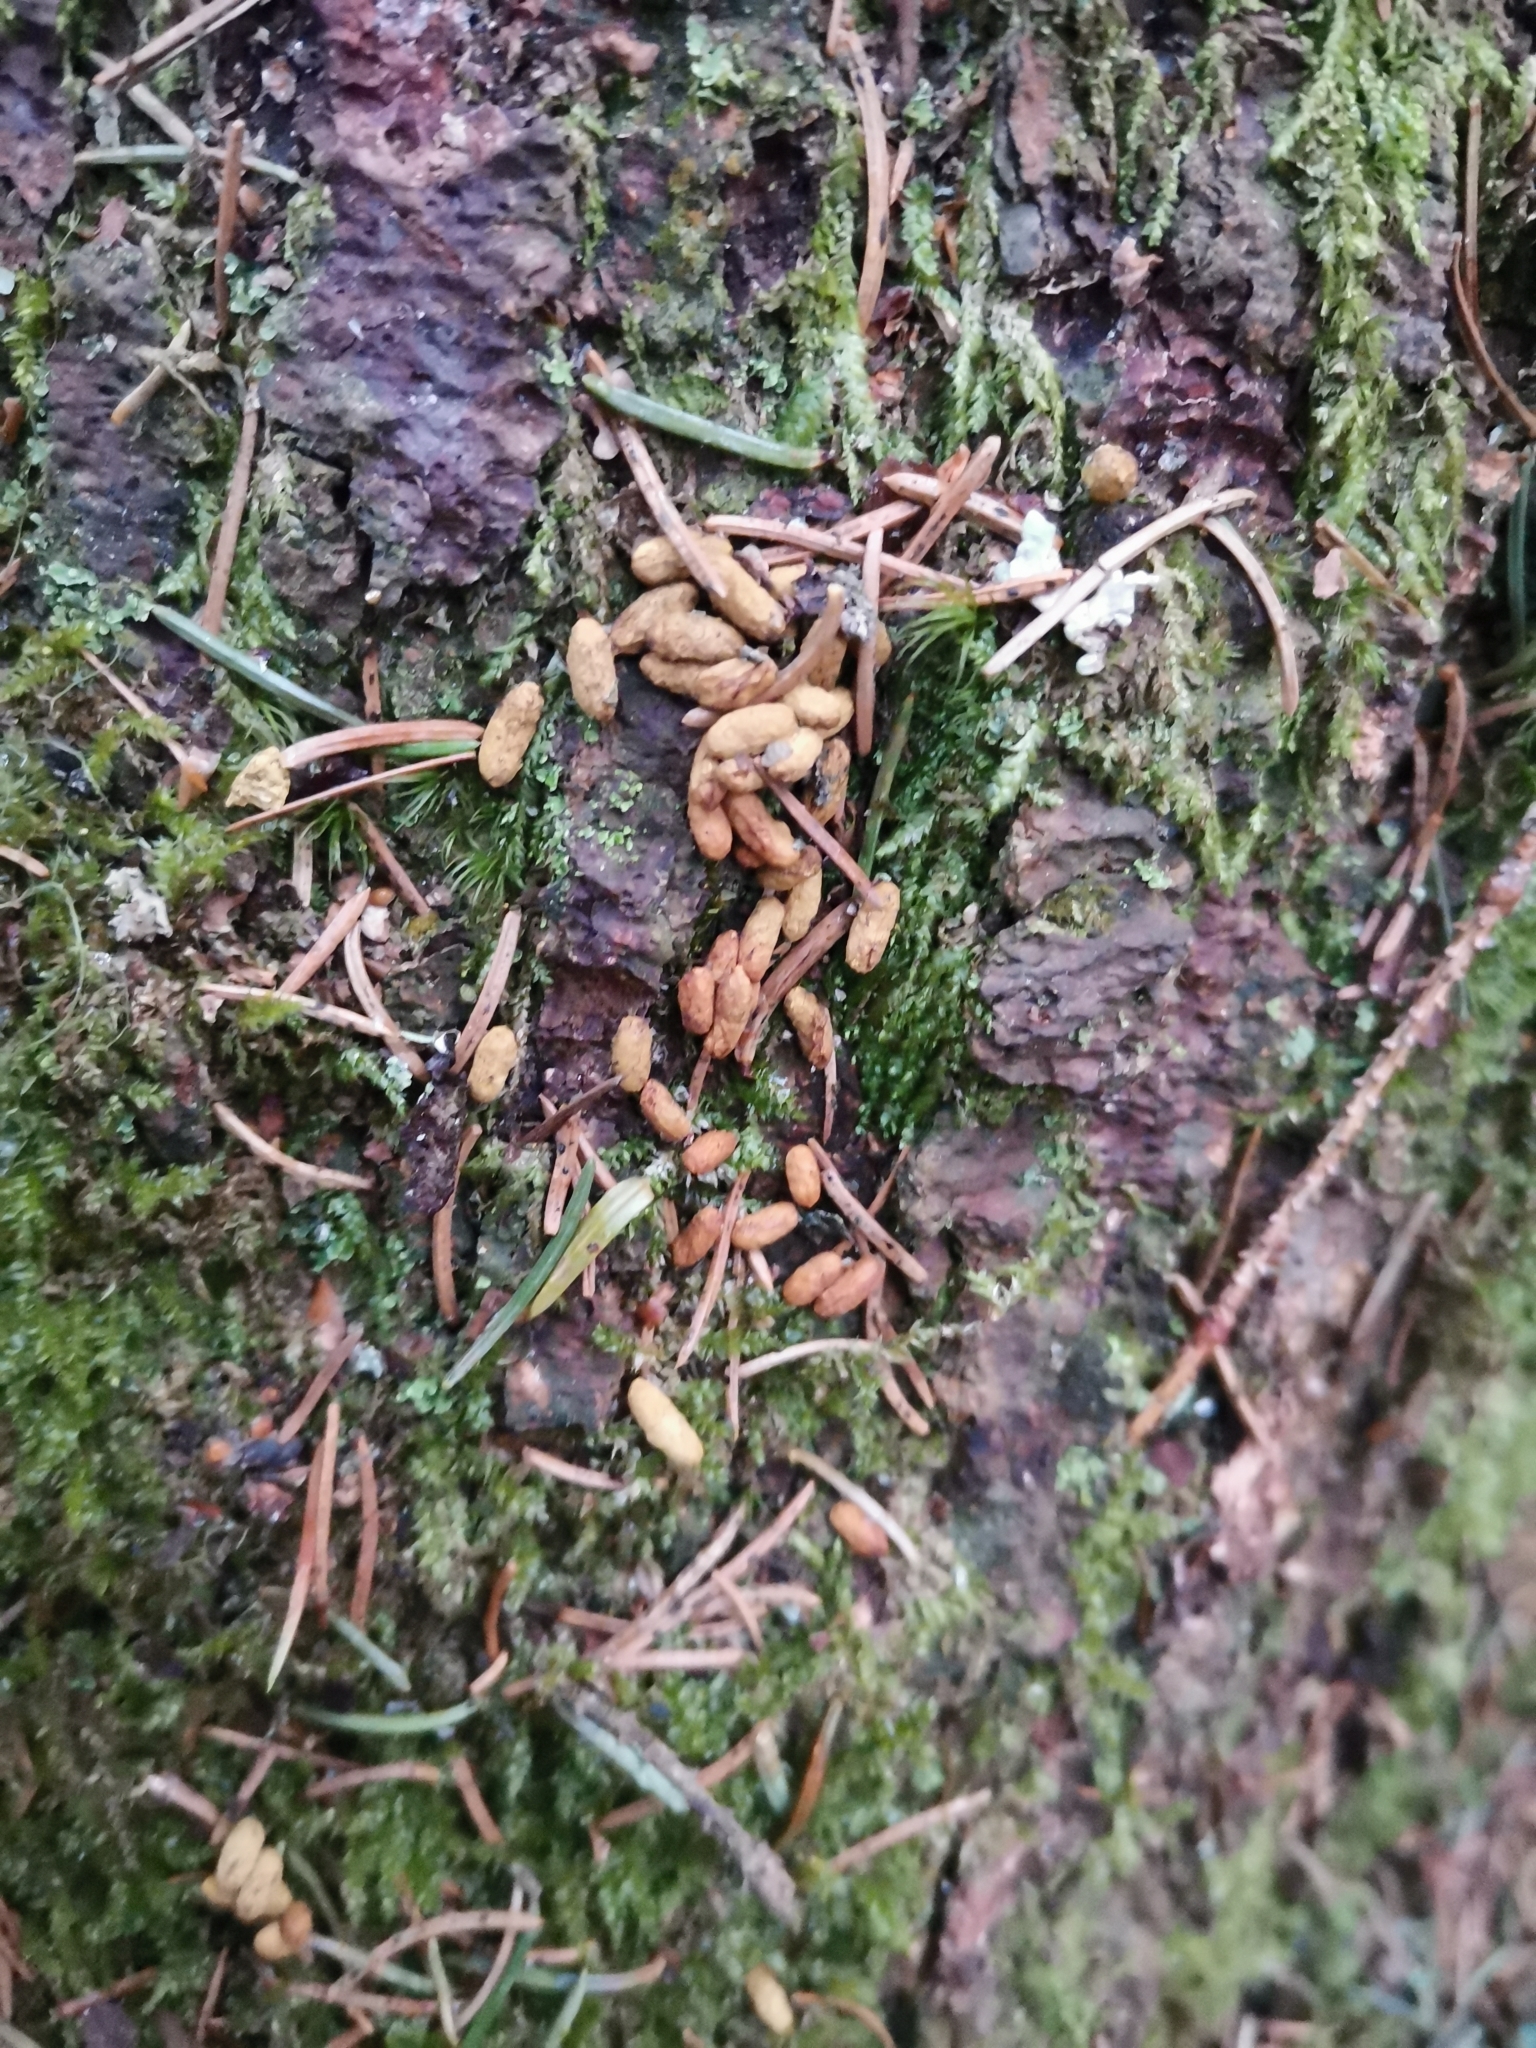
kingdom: Animalia
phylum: Chordata
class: Mammalia
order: Rodentia
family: Sciuridae
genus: Pteromys
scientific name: Pteromys volans
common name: Siberian flying squirrel
